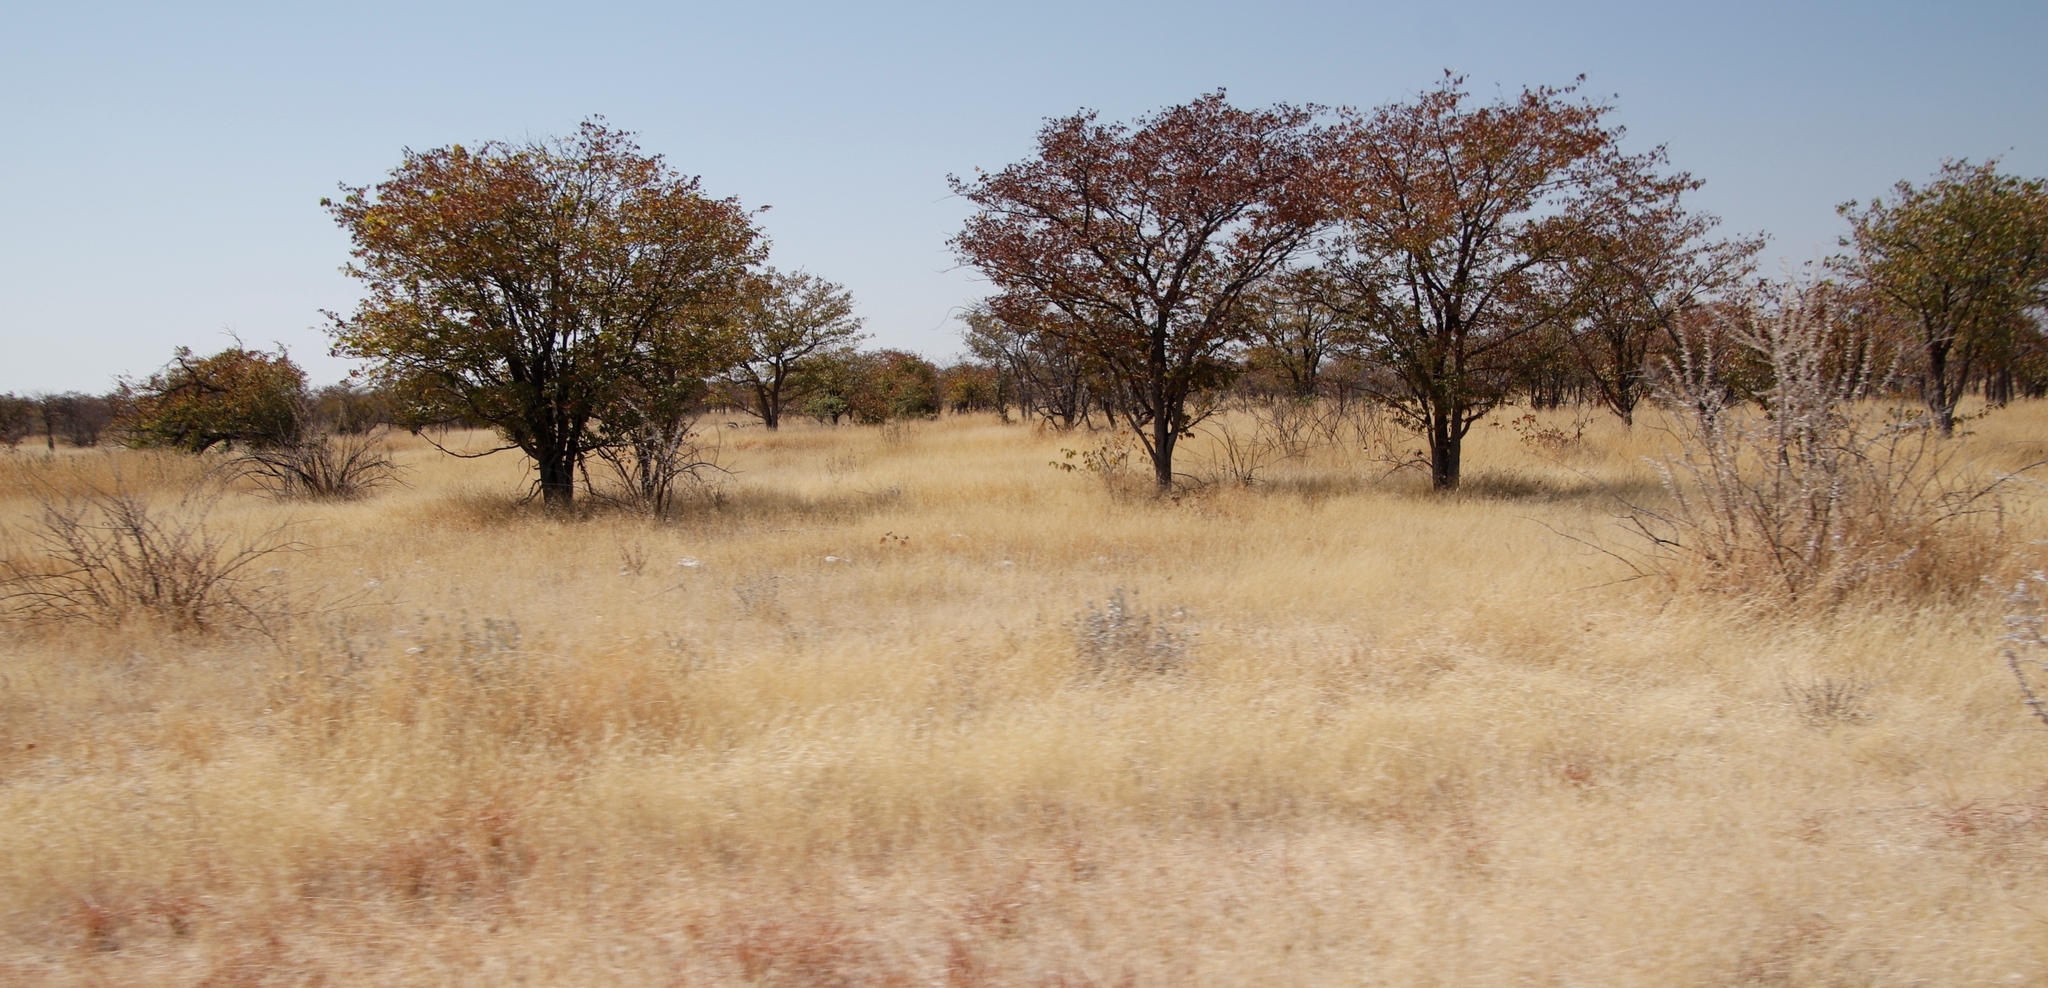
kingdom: Plantae
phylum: Tracheophyta
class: Magnoliopsida
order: Fabales
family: Fabaceae
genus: Colophospermum
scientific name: Colophospermum mopane
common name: Mopane
